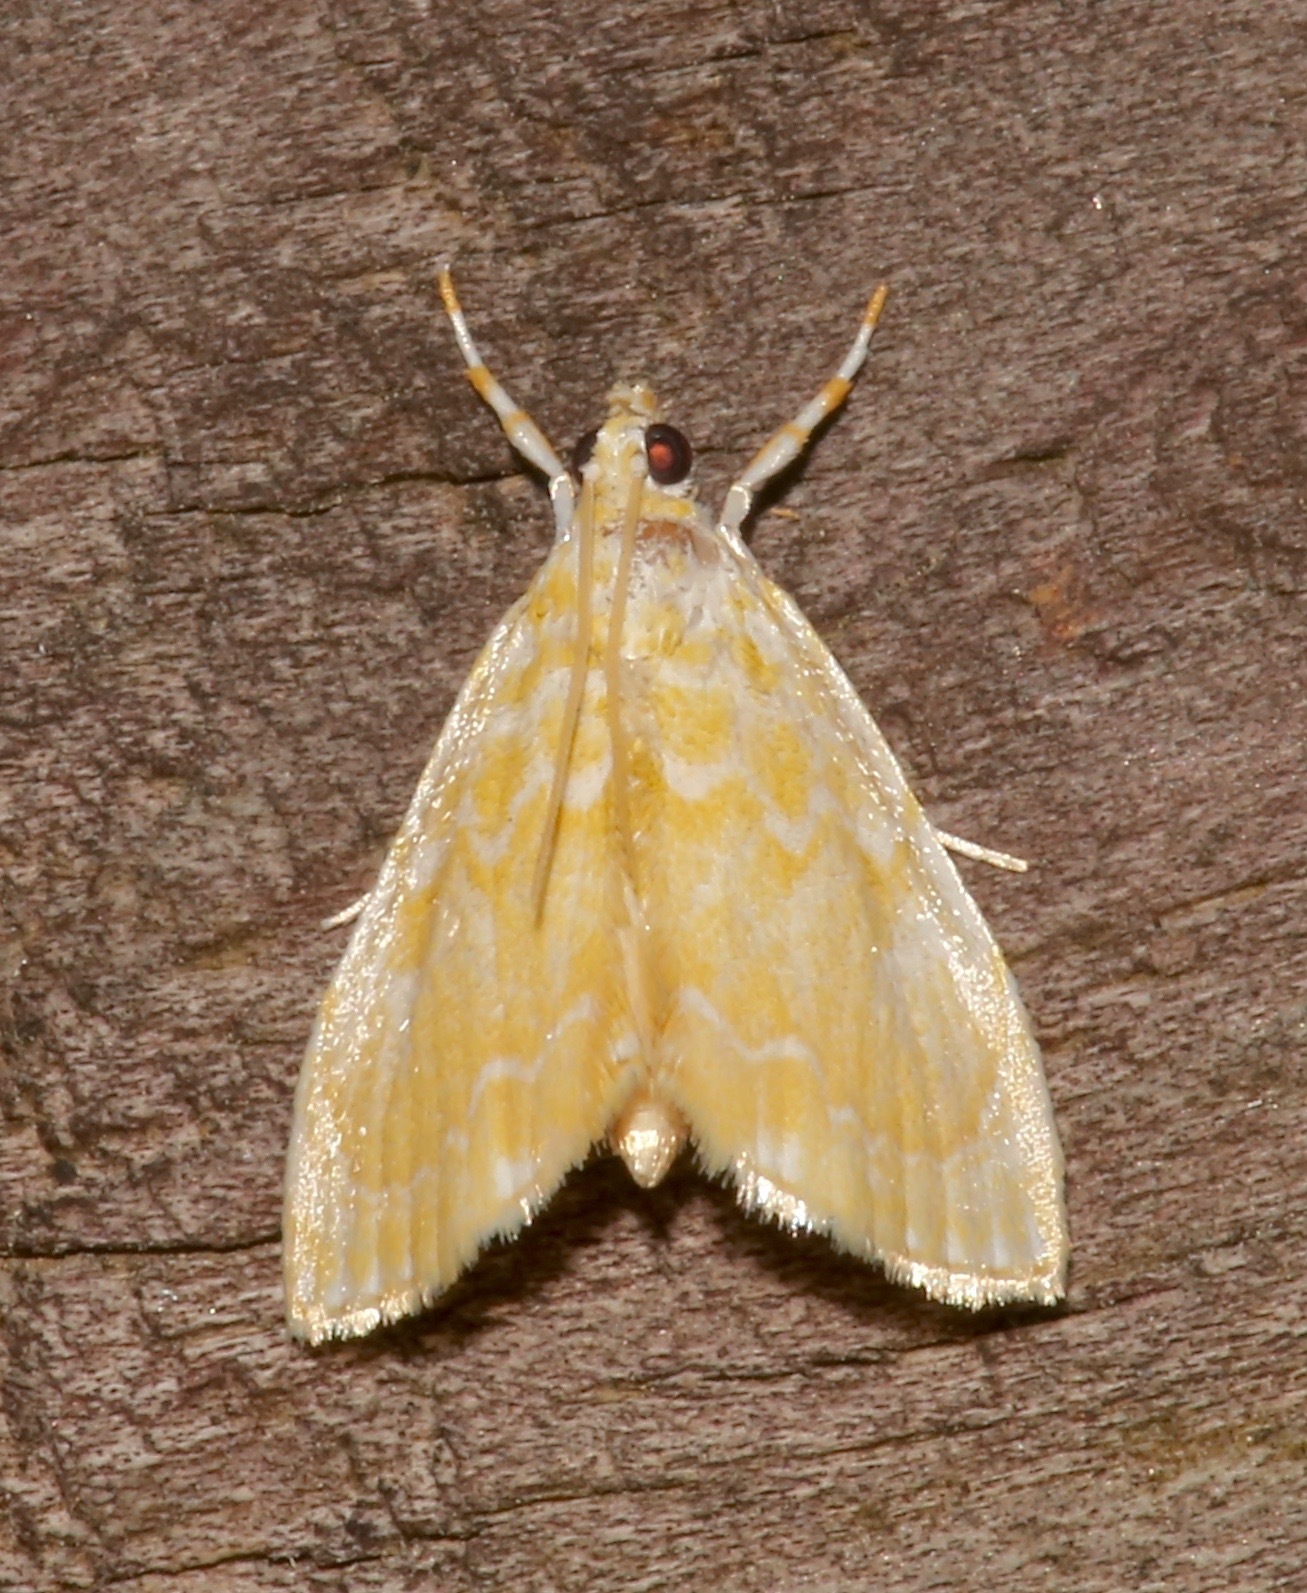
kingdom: Animalia
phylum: Arthropoda
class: Insecta
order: Lepidoptera
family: Crambidae
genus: Glaphyria
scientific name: Glaphyria glaphyralis
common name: Common glaphyria moth
